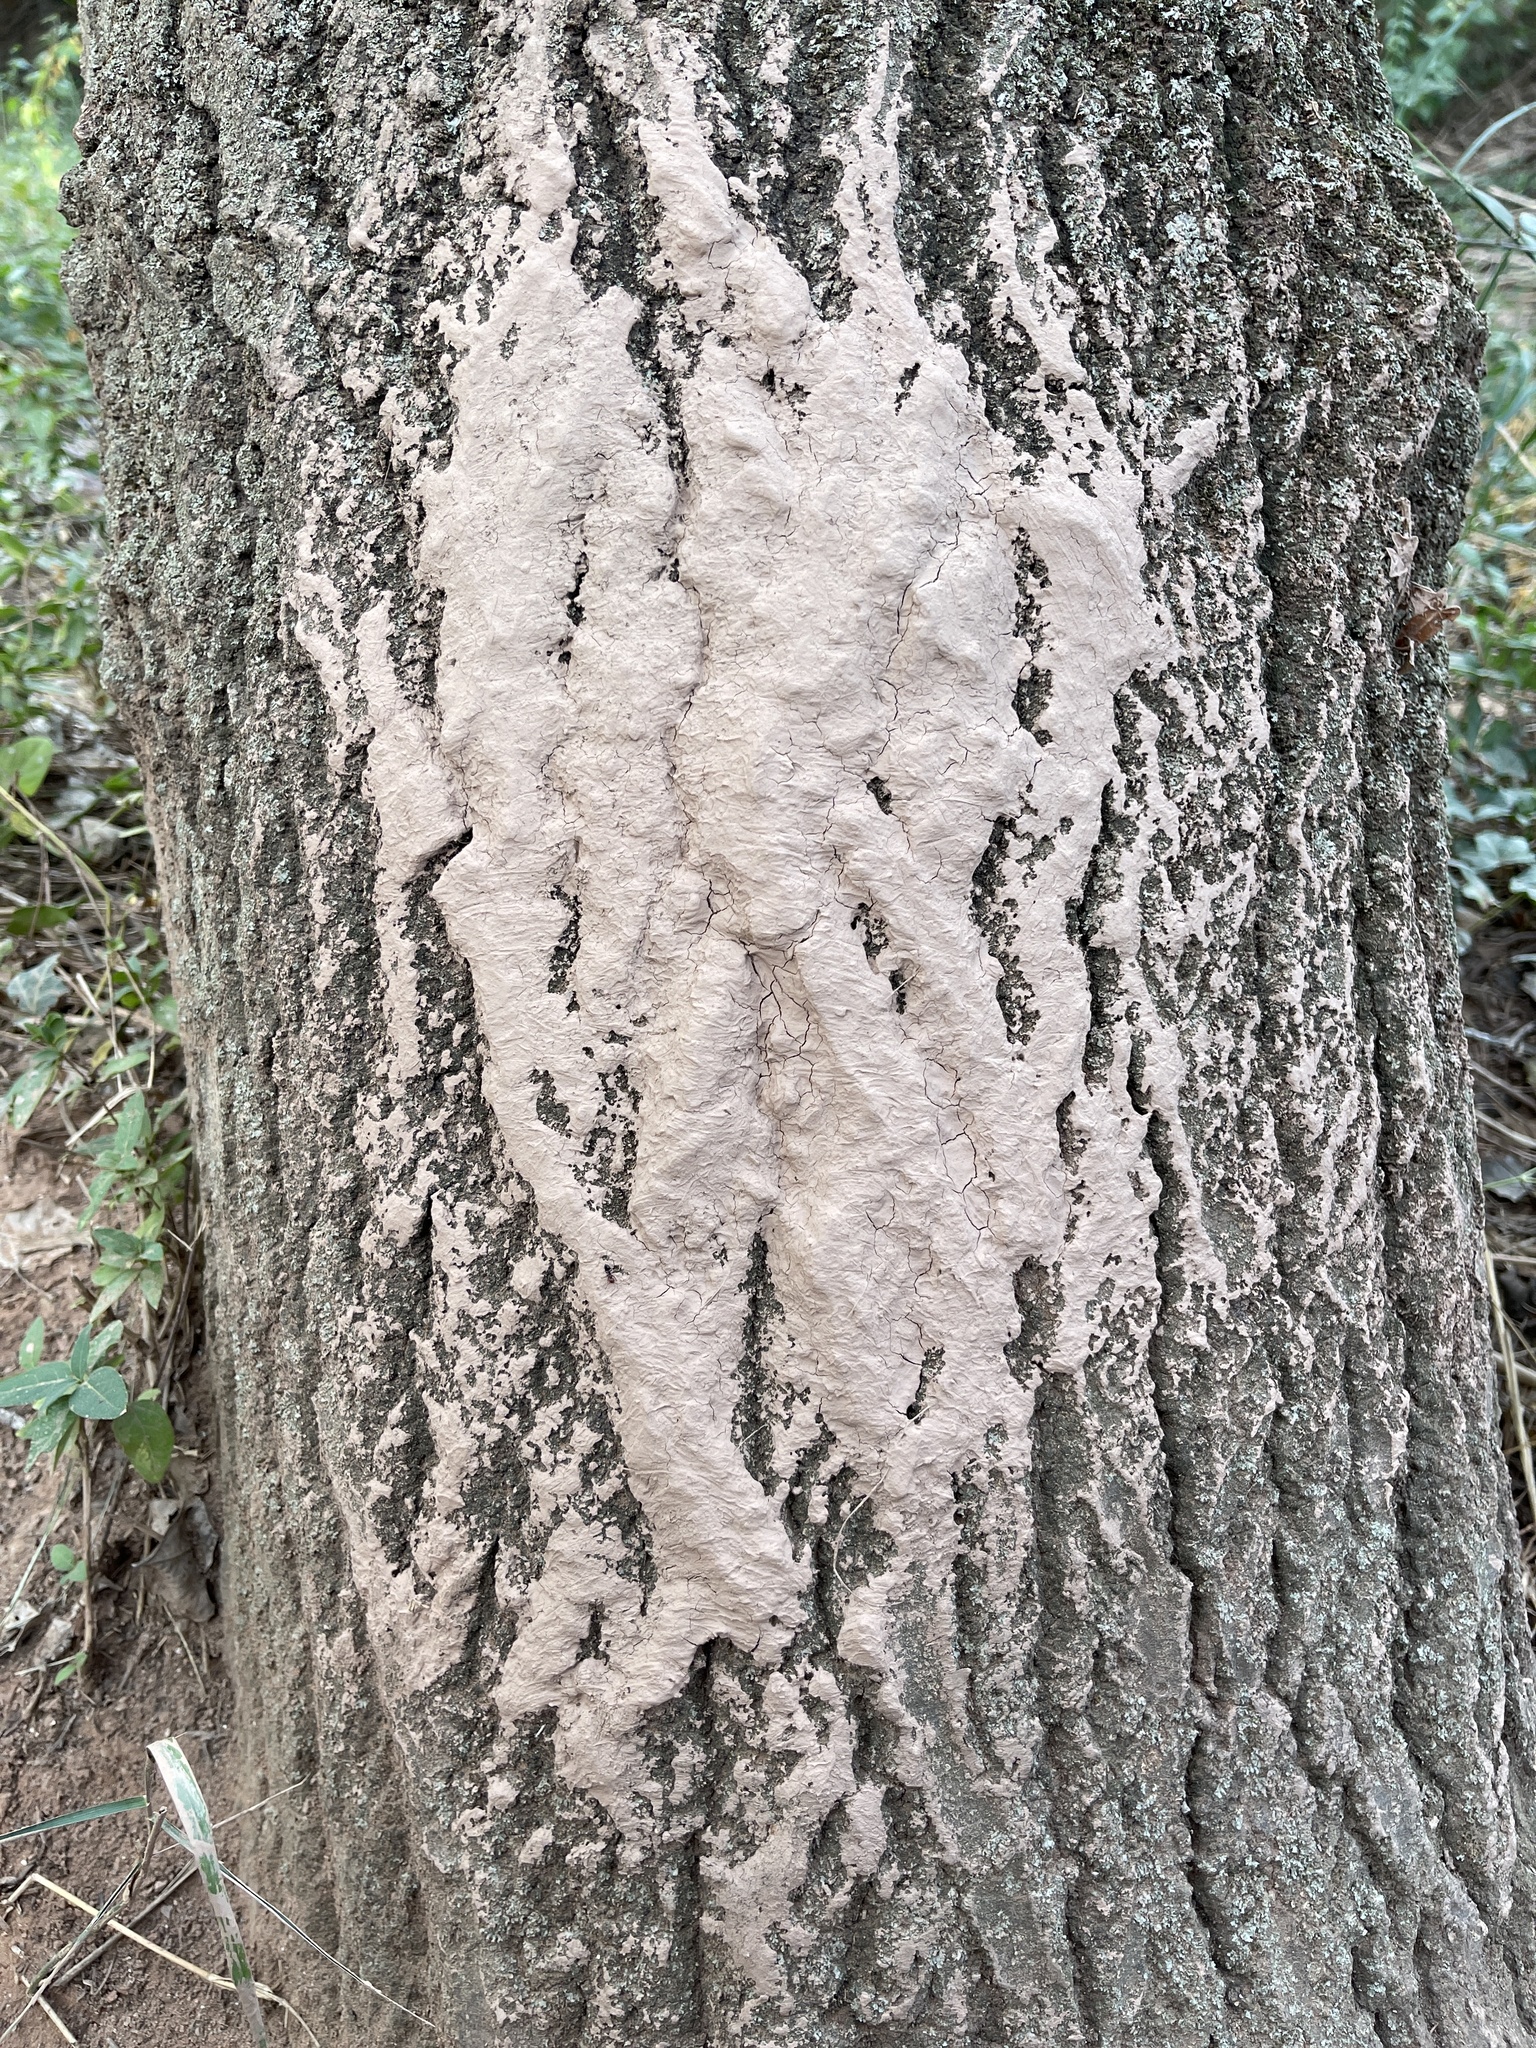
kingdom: Animalia
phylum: Chordata
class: Mammalia
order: Artiodactyla
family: Suidae
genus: Sus
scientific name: Sus scrofa
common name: Wild boar
